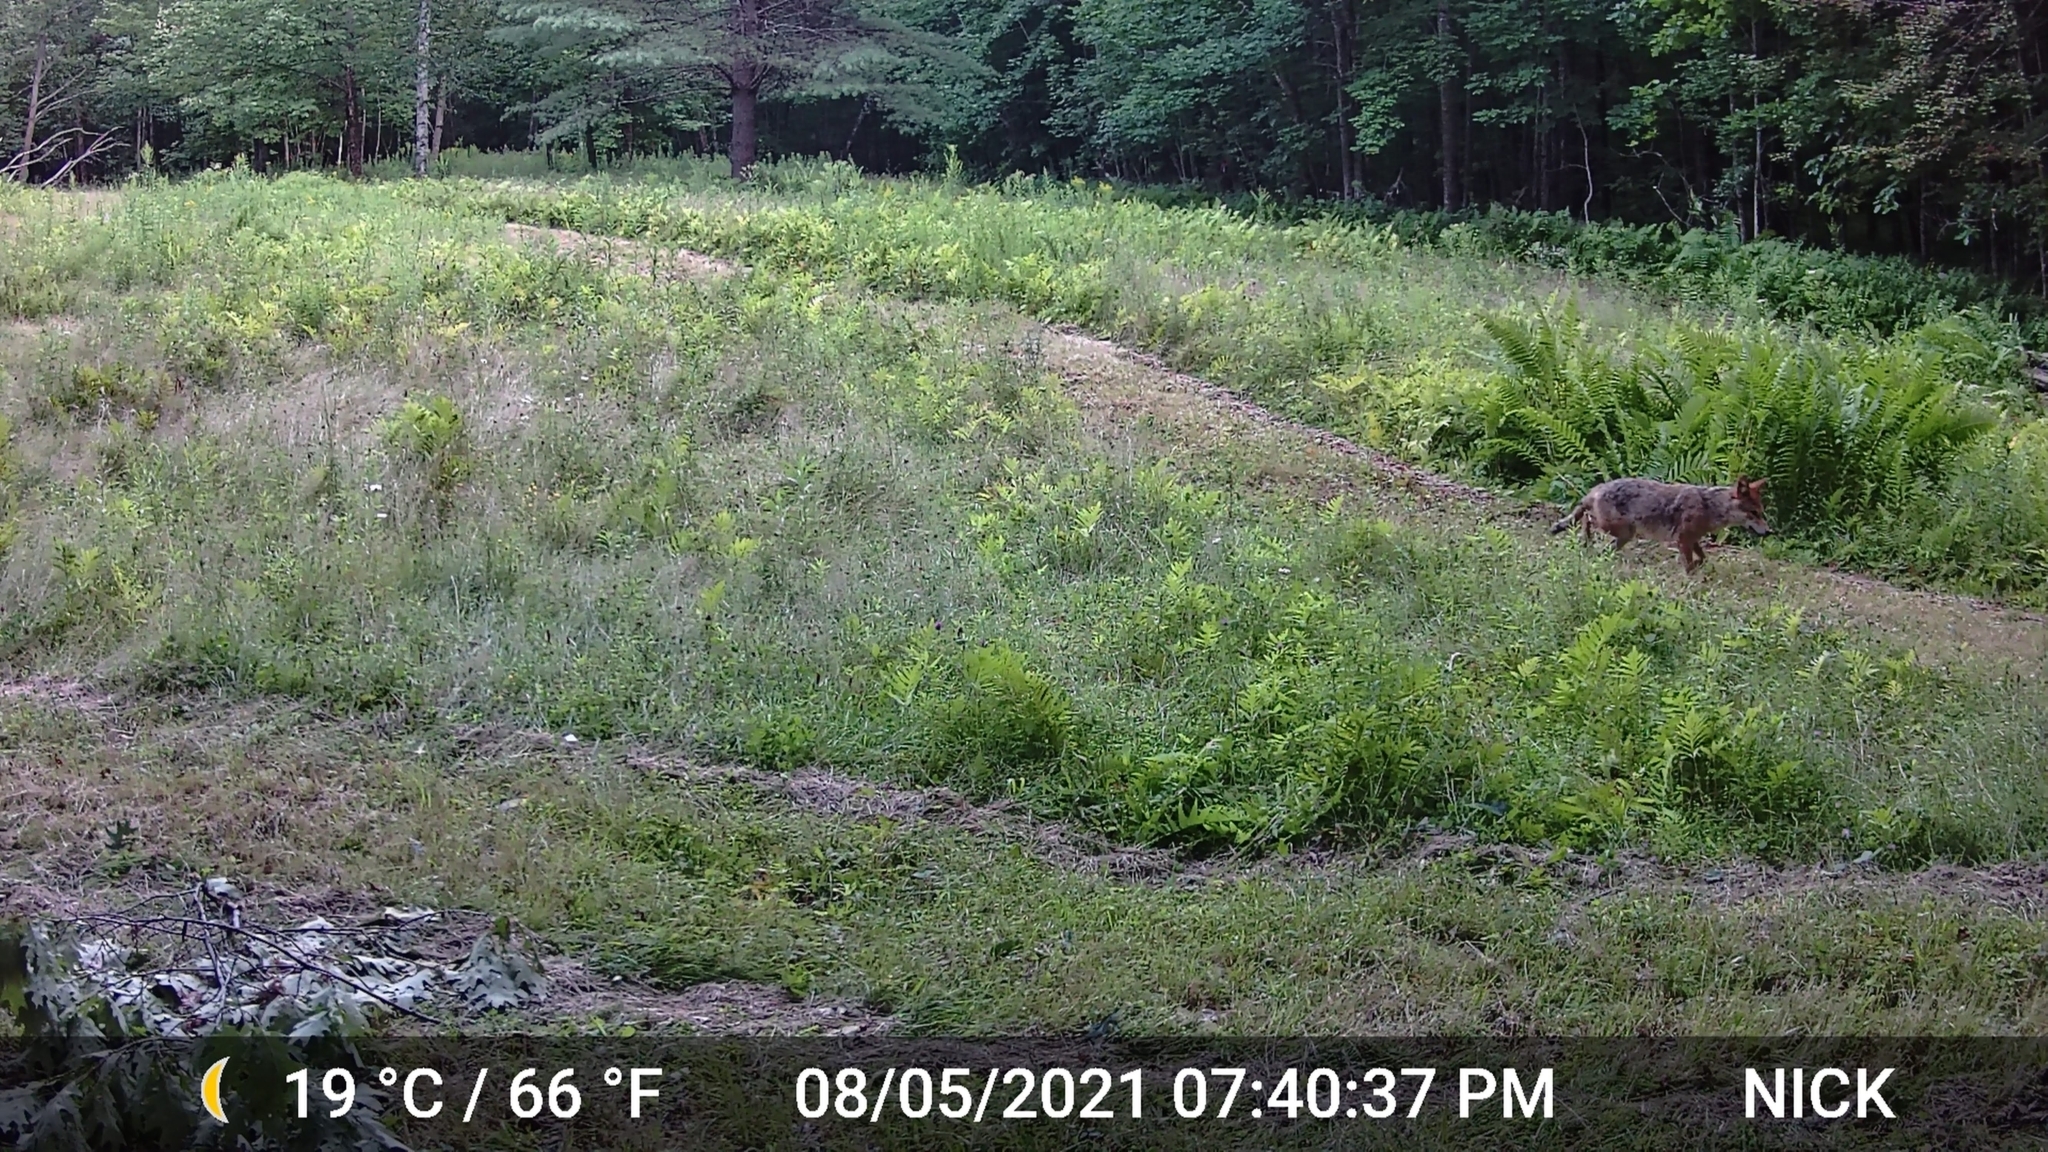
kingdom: Animalia
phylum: Chordata
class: Mammalia
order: Carnivora
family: Canidae
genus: Canis
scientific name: Canis latrans
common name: Coyote
